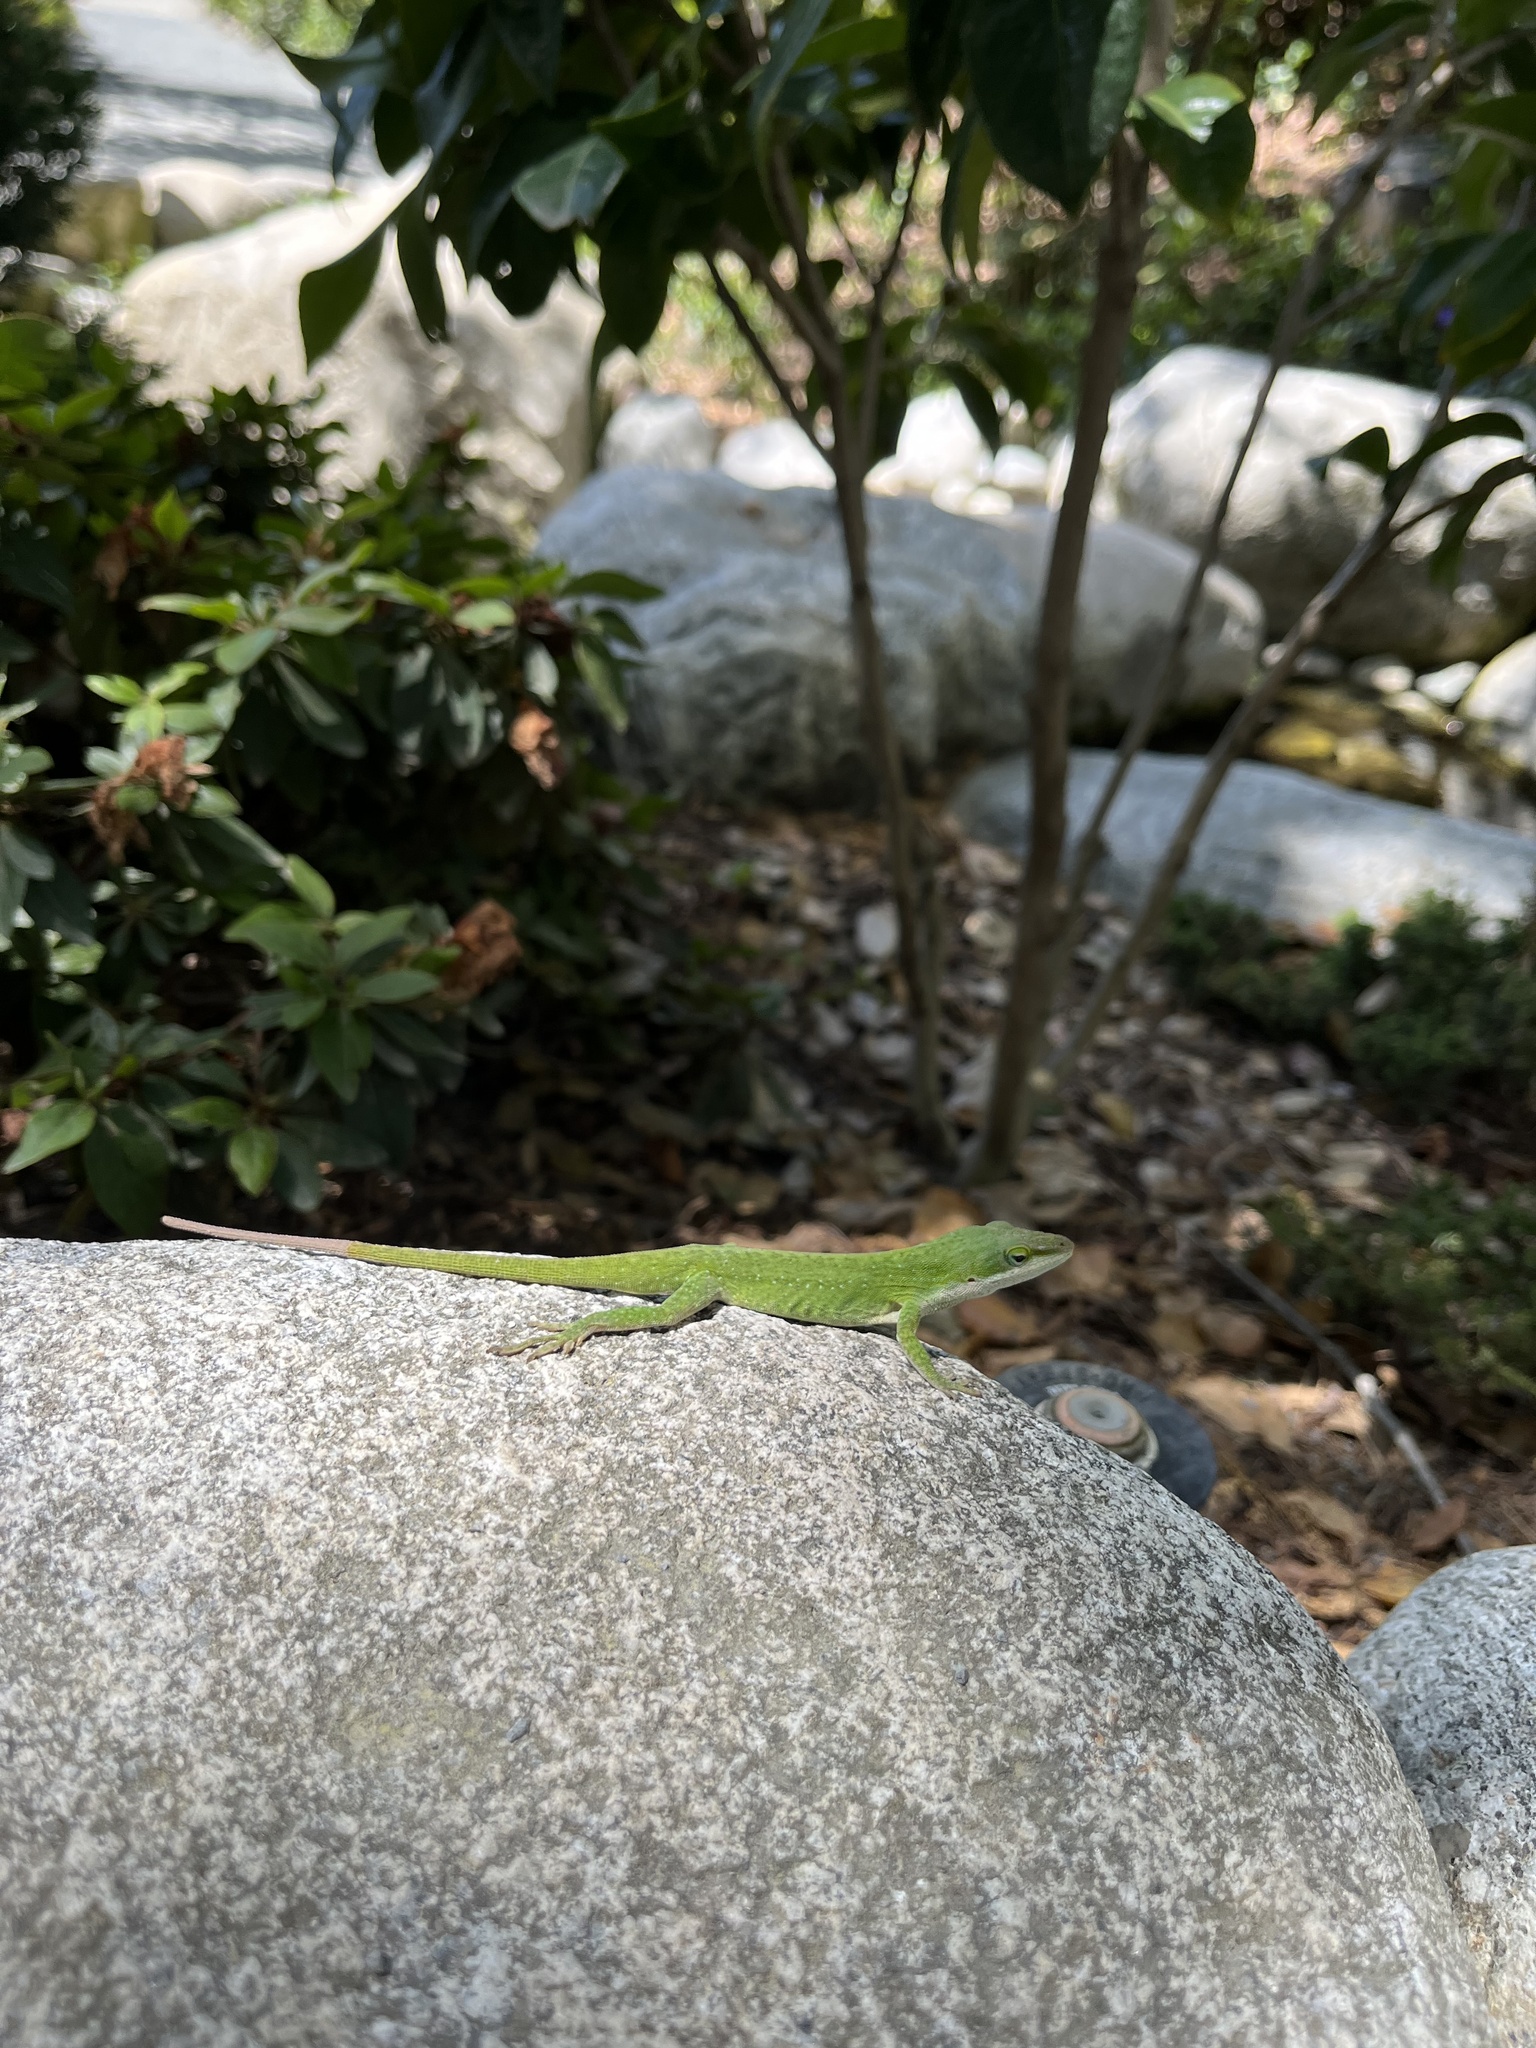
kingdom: Animalia
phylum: Chordata
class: Squamata
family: Dactyloidae
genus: Anolis
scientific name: Anolis carolinensis
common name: Green anole
